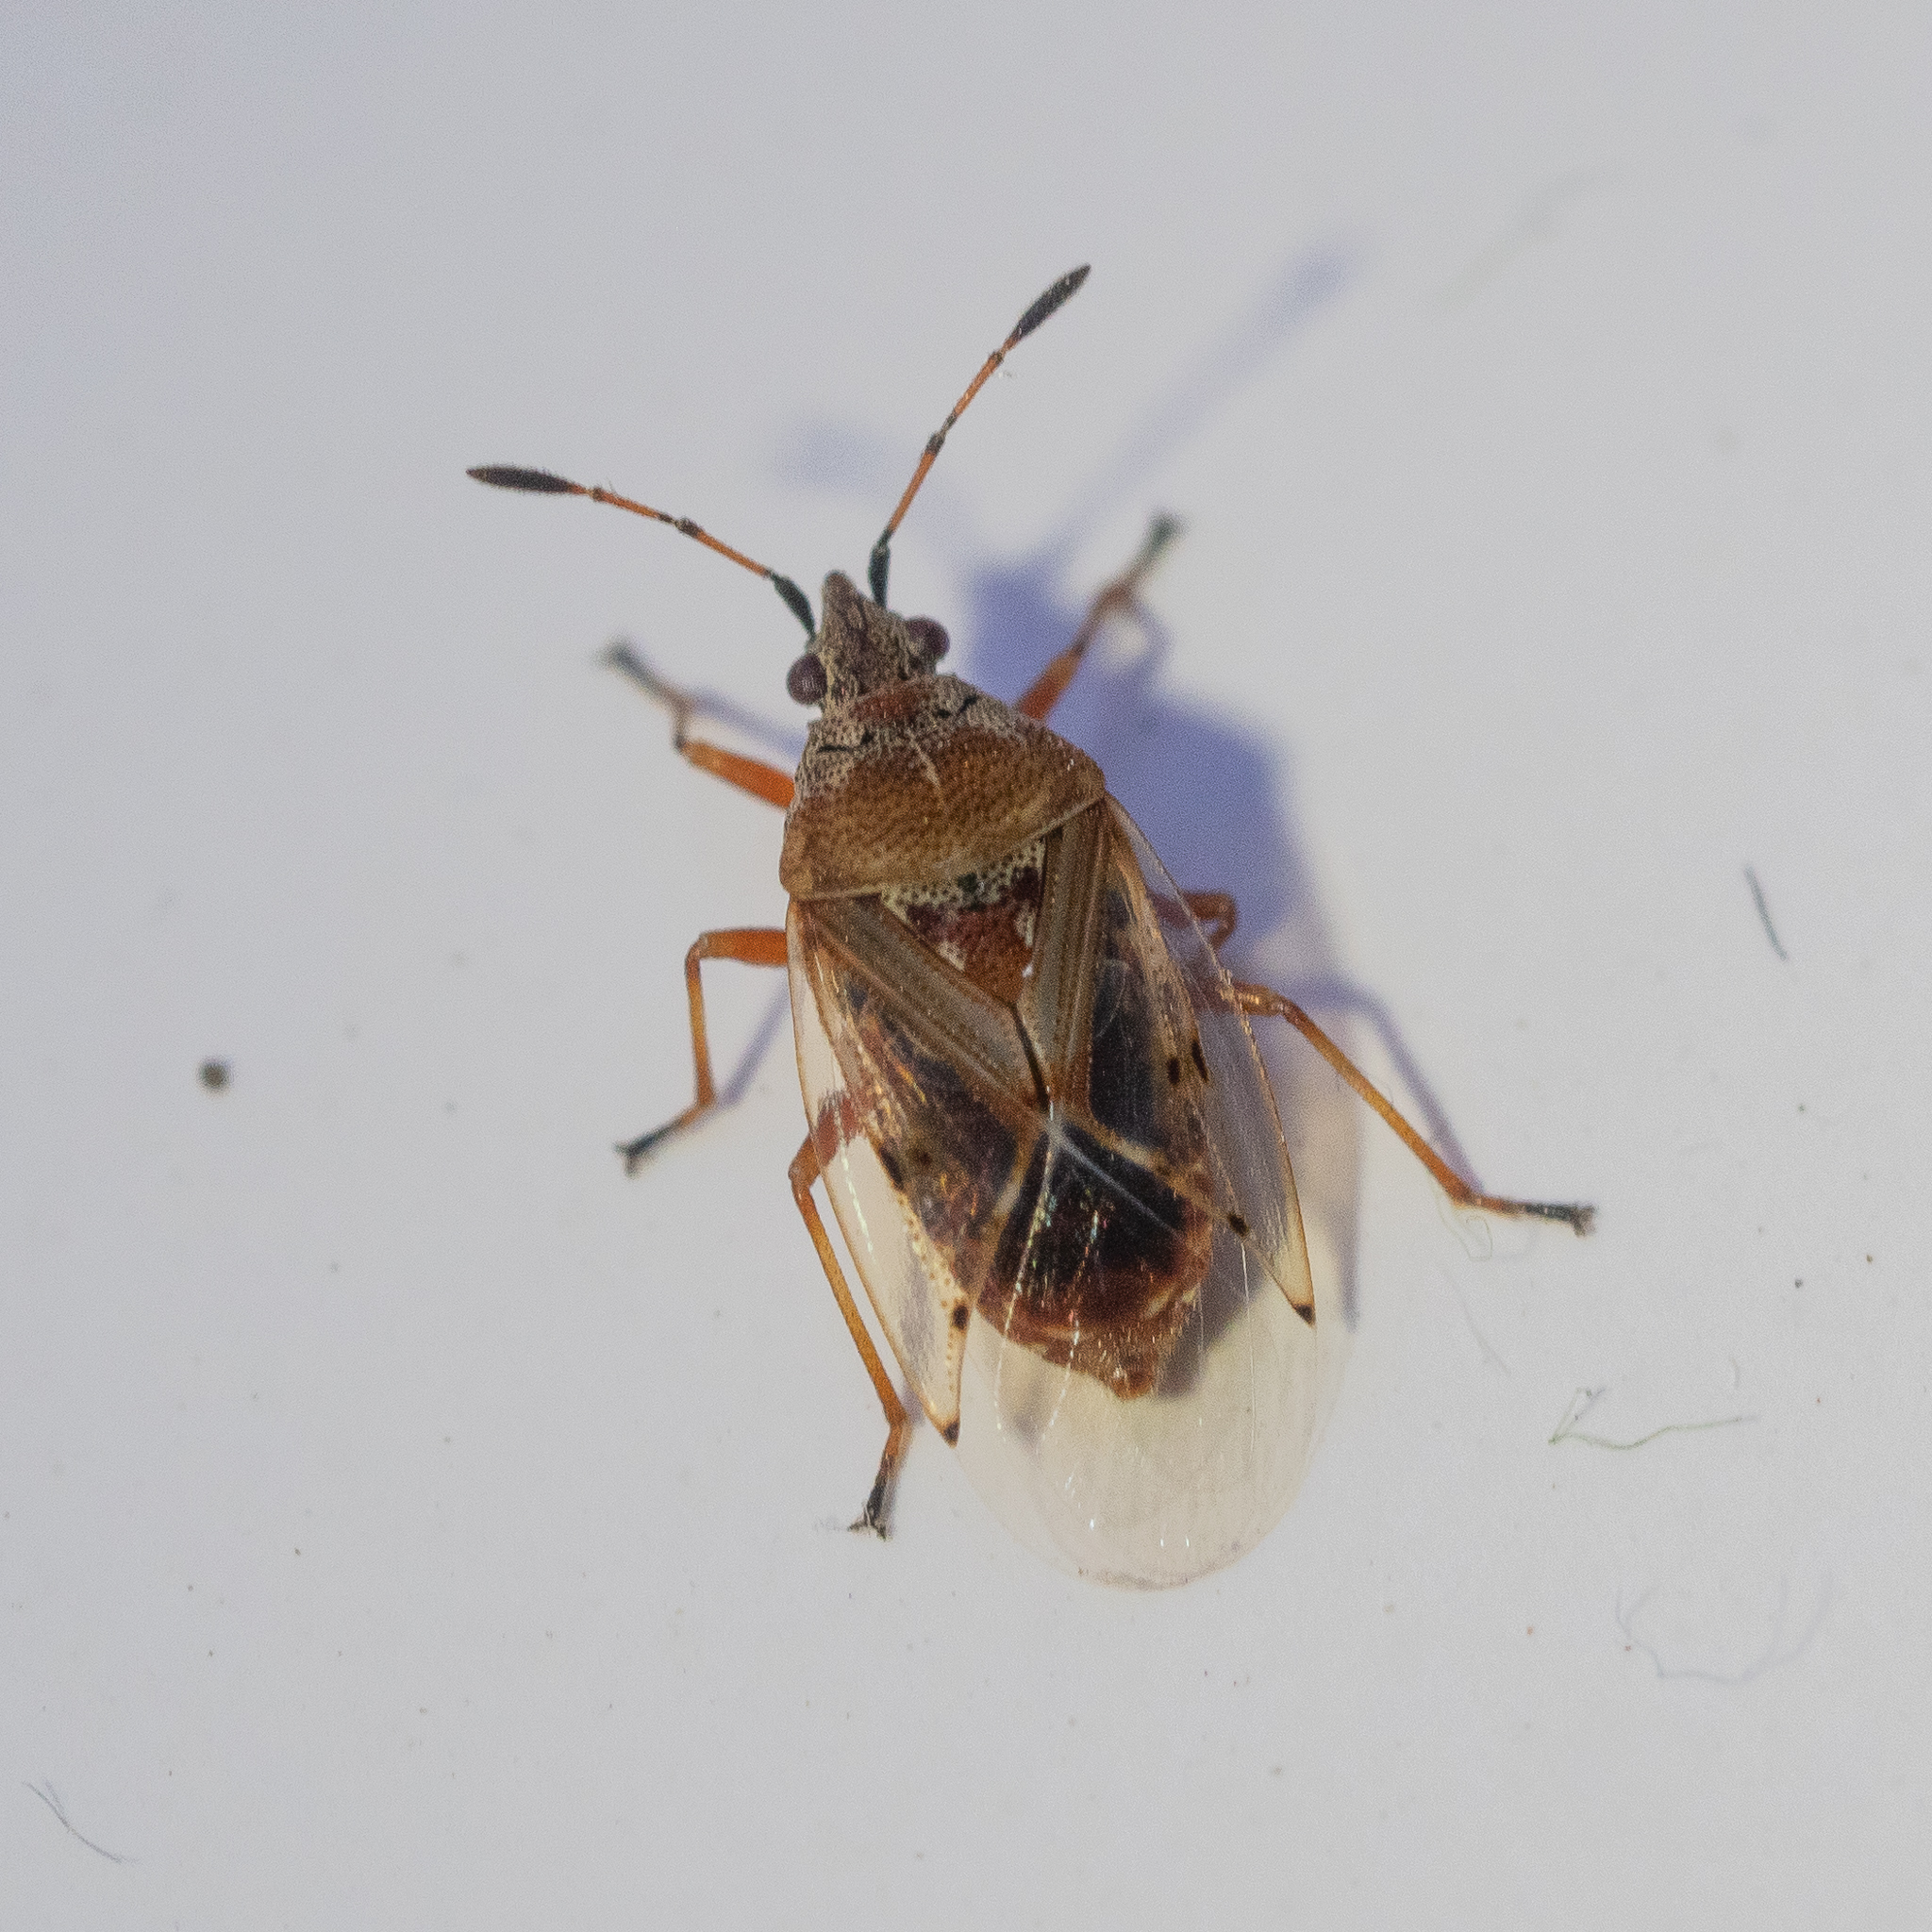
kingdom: Animalia
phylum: Arthropoda
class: Insecta
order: Hemiptera
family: Lygaeidae
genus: Kleidocerys
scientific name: Kleidocerys resedae
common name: Birch catkin bug
